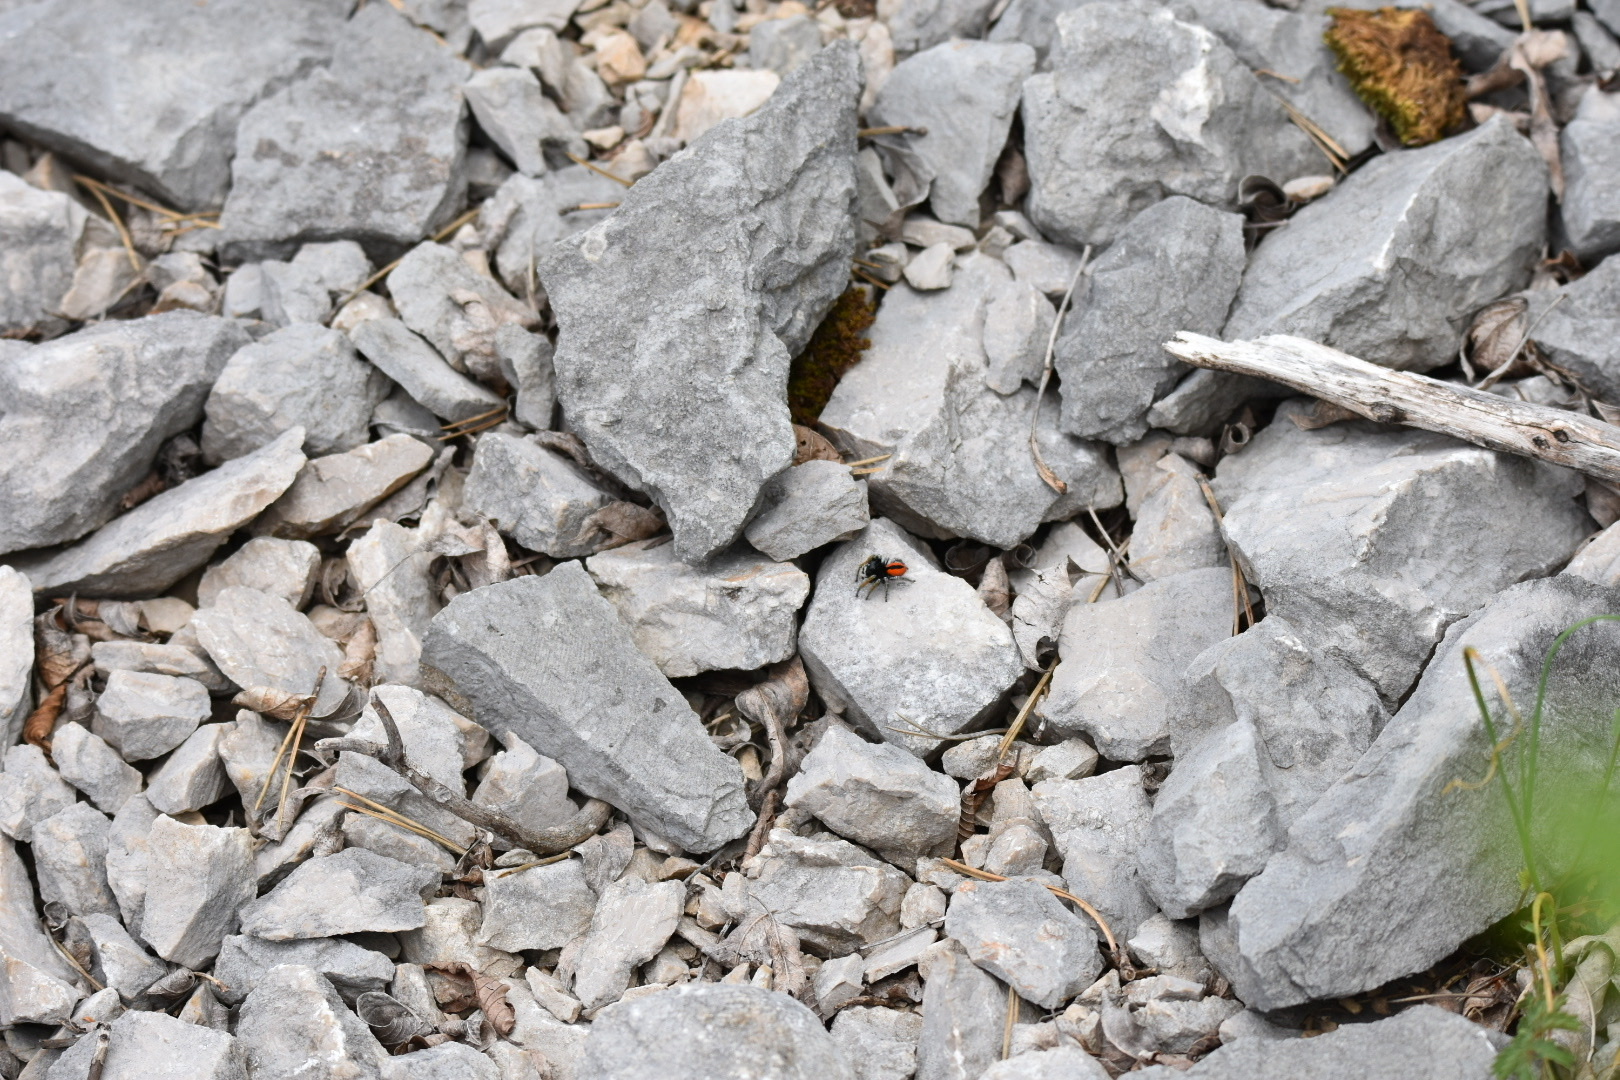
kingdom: Animalia
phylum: Arthropoda
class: Arachnida
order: Araneae
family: Salticidae
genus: Philaeus
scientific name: Philaeus chrysops
